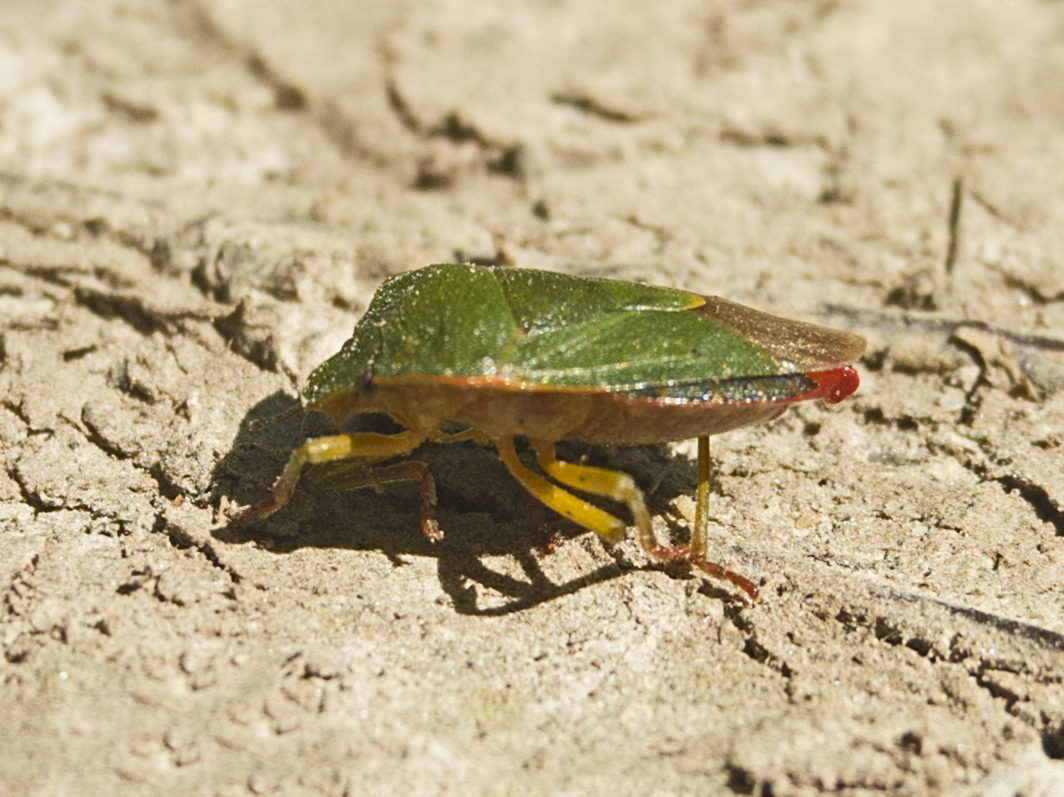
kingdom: Animalia
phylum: Arthropoda
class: Insecta
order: Hemiptera
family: Pentatomidae
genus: Palomena
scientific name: Palomena prasina
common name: Green shieldbug
